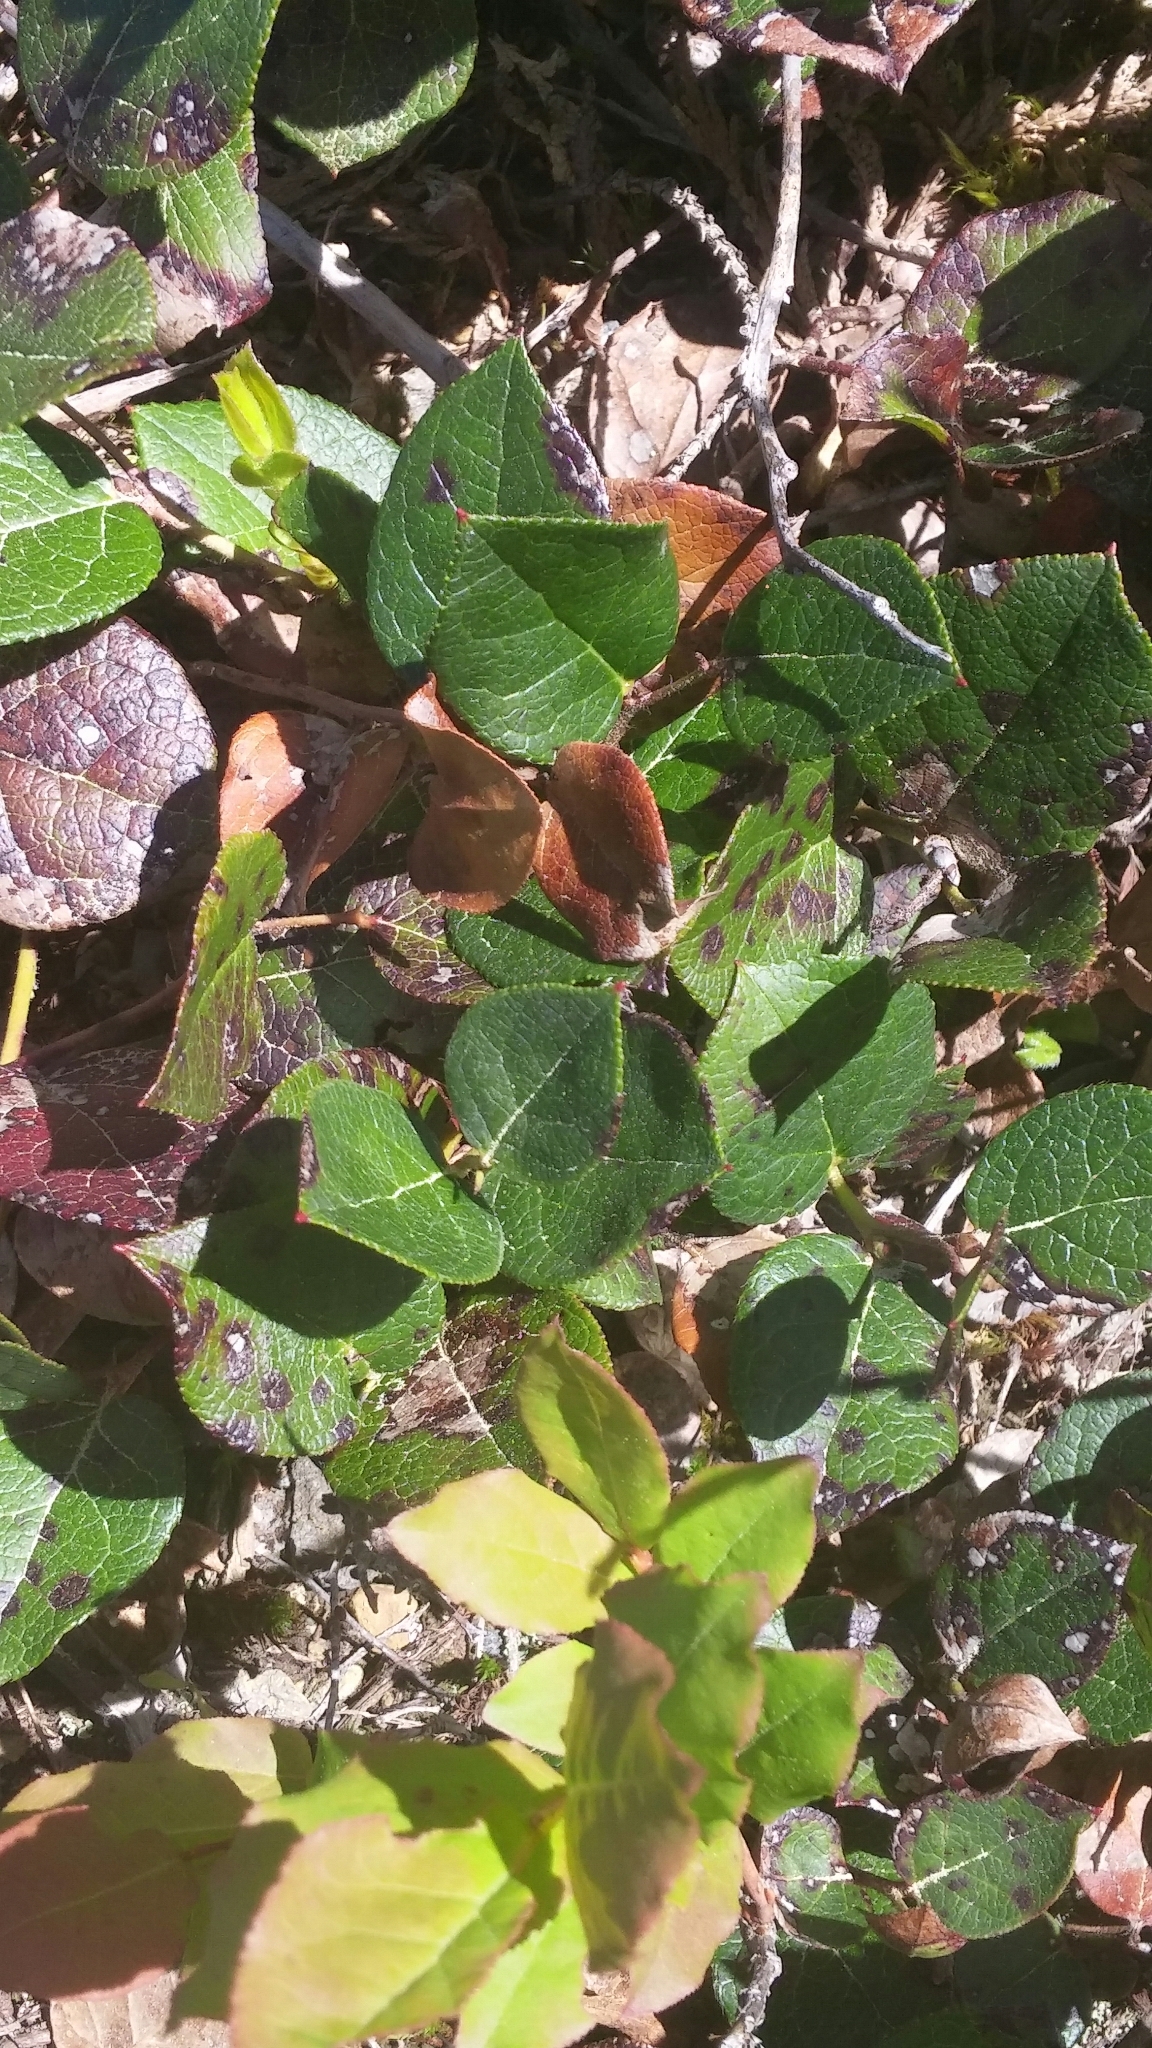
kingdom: Plantae
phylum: Tracheophyta
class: Magnoliopsida
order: Ericales
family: Ericaceae
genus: Gaultheria
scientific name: Gaultheria shallon
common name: Shallon
